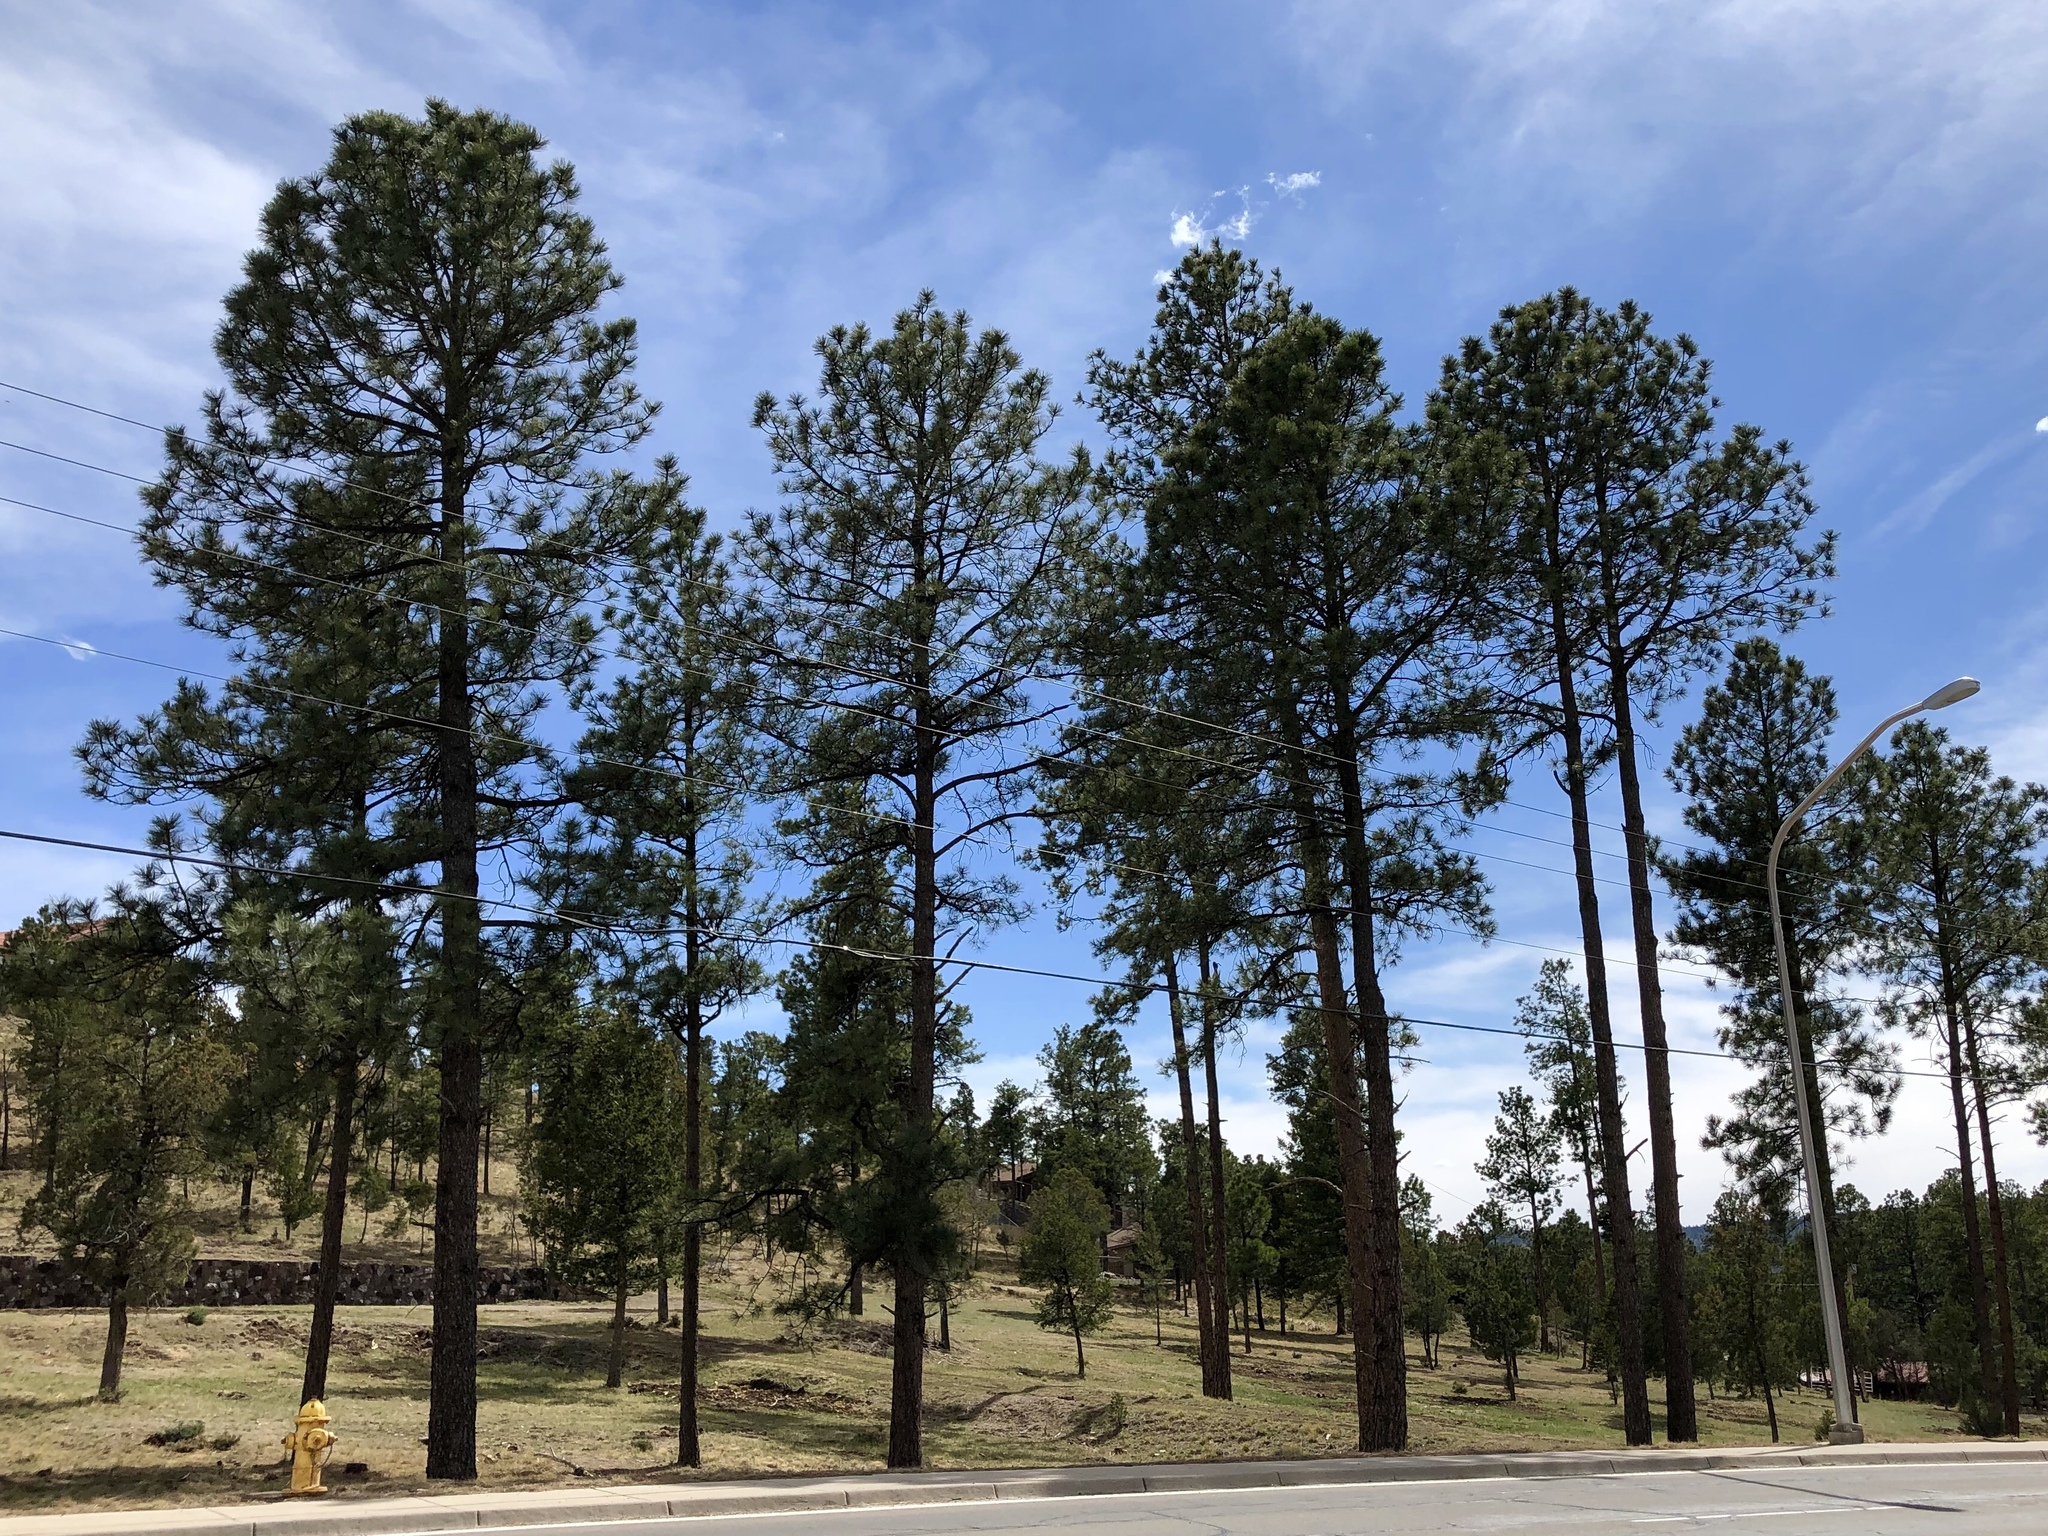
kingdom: Plantae
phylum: Tracheophyta
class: Pinopsida
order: Pinales
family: Pinaceae
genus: Pinus
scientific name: Pinus ponderosa
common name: Western yellow-pine
